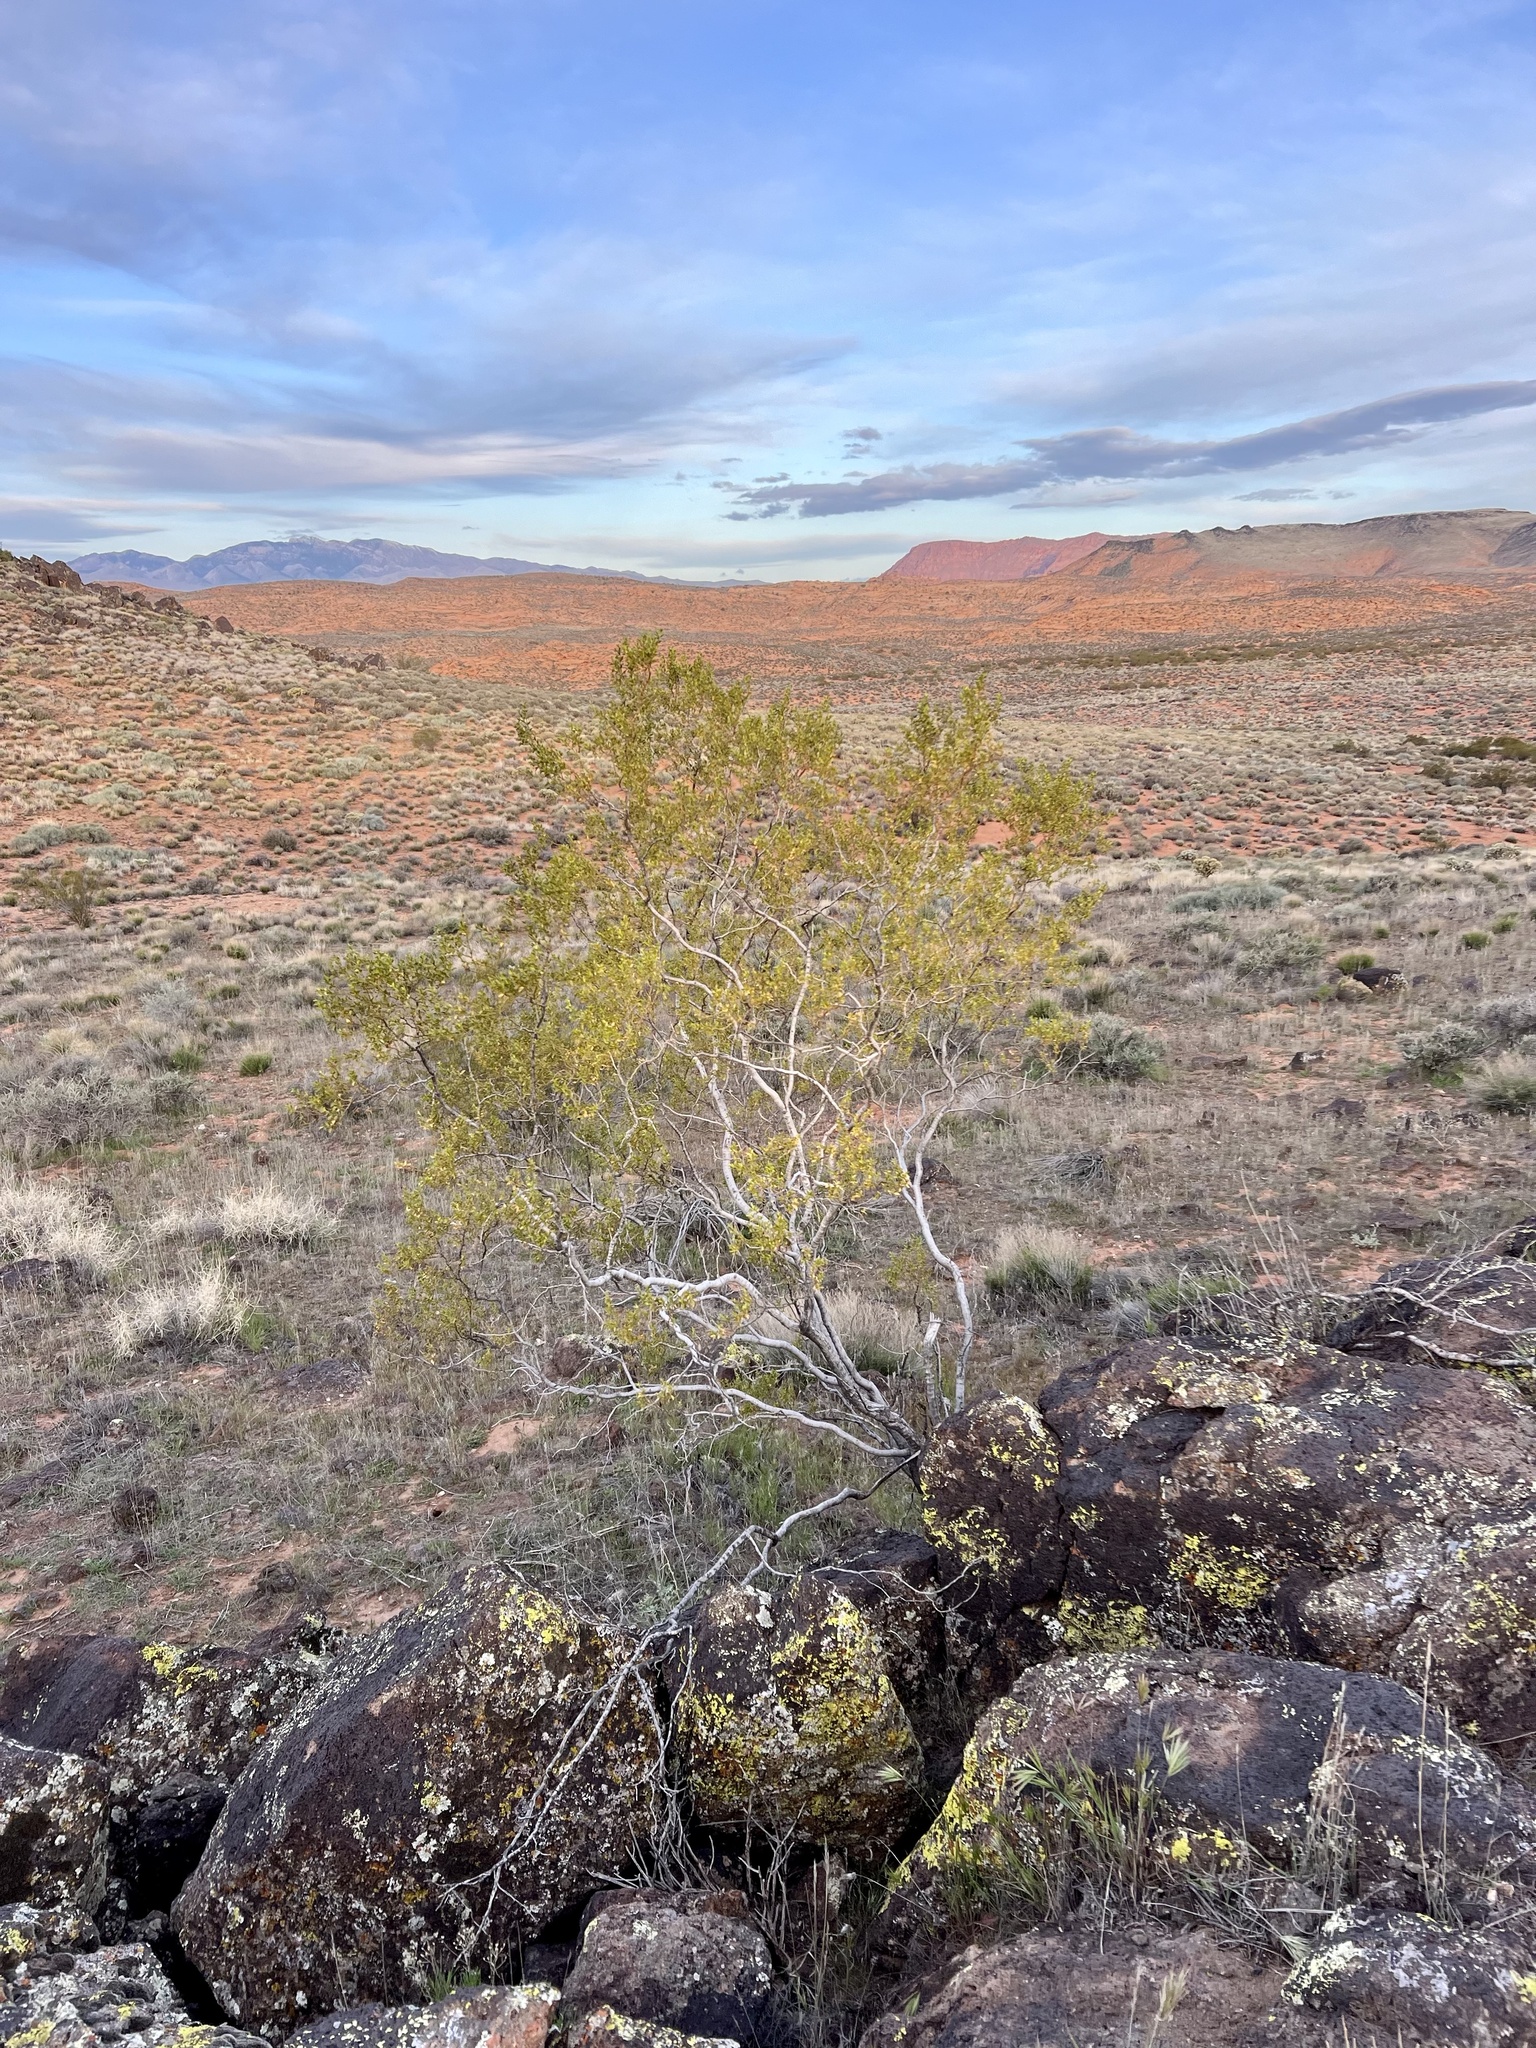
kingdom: Plantae
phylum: Tracheophyta
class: Magnoliopsida
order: Zygophyllales
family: Zygophyllaceae
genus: Larrea
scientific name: Larrea tridentata
